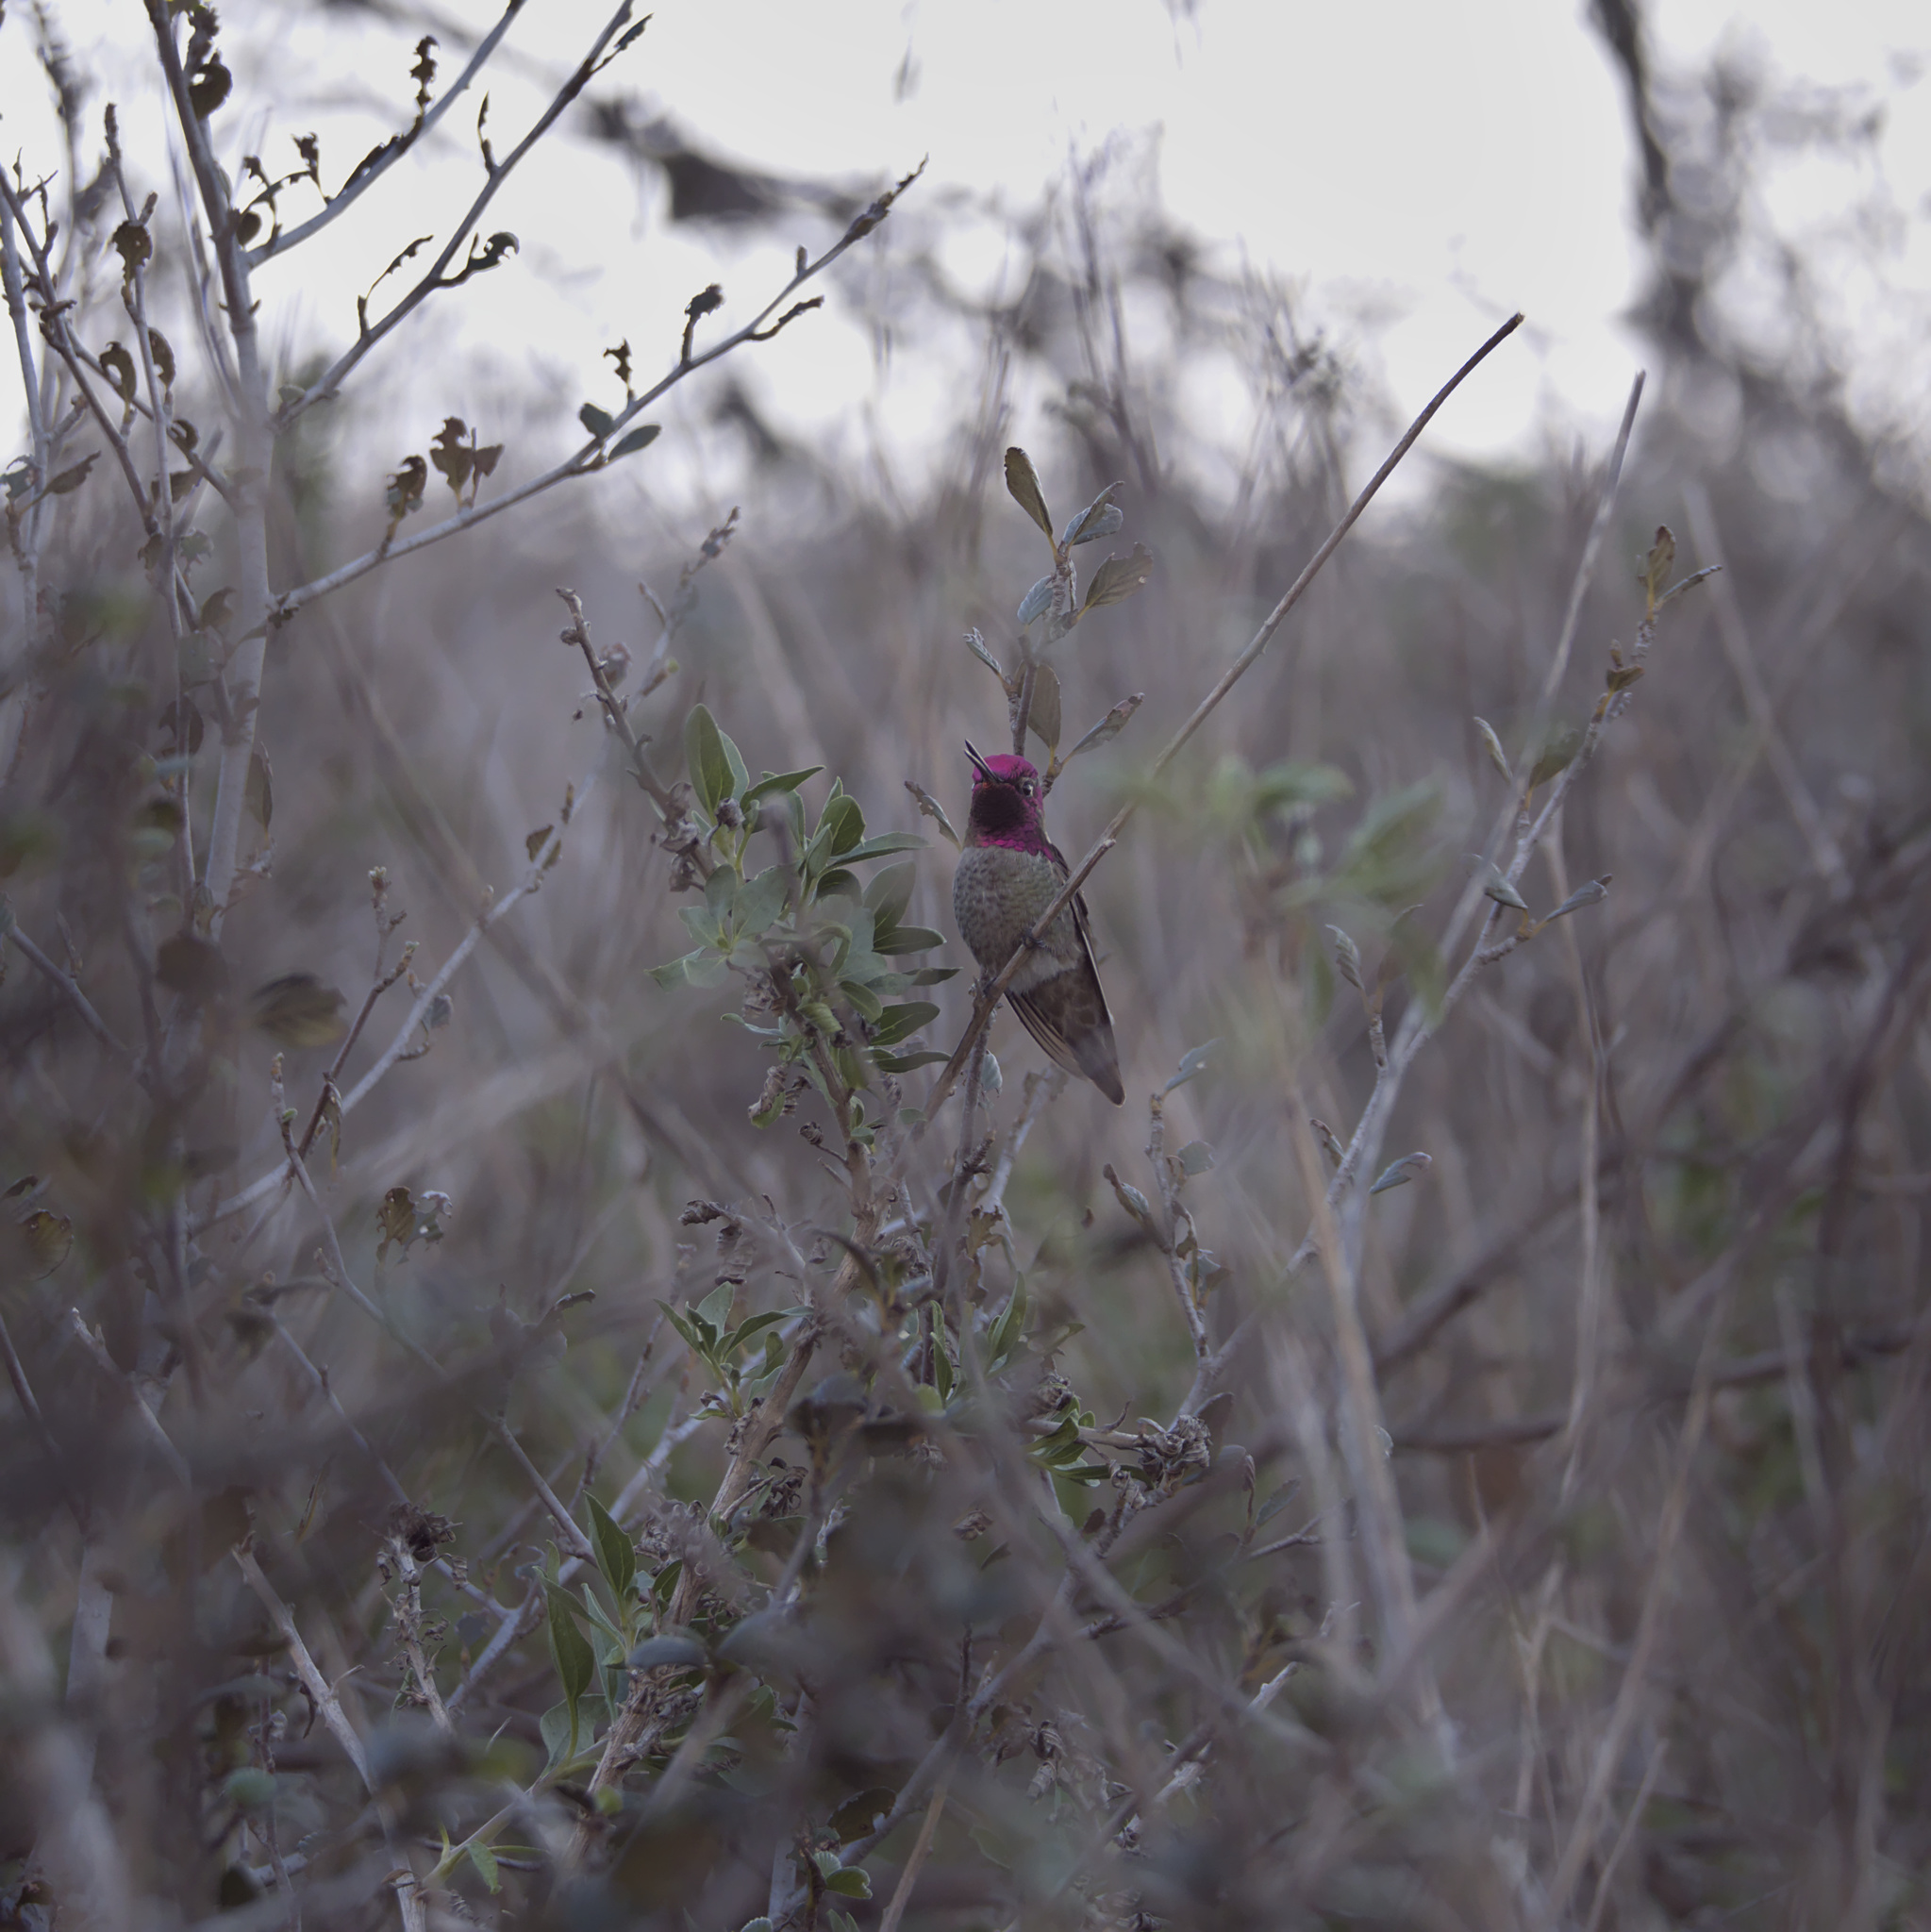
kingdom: Animalia
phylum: Chordata
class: Aves
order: Apodiformes
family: Trochilidae
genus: Calypte
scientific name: Calypte anna
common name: Anna's hummingbird
